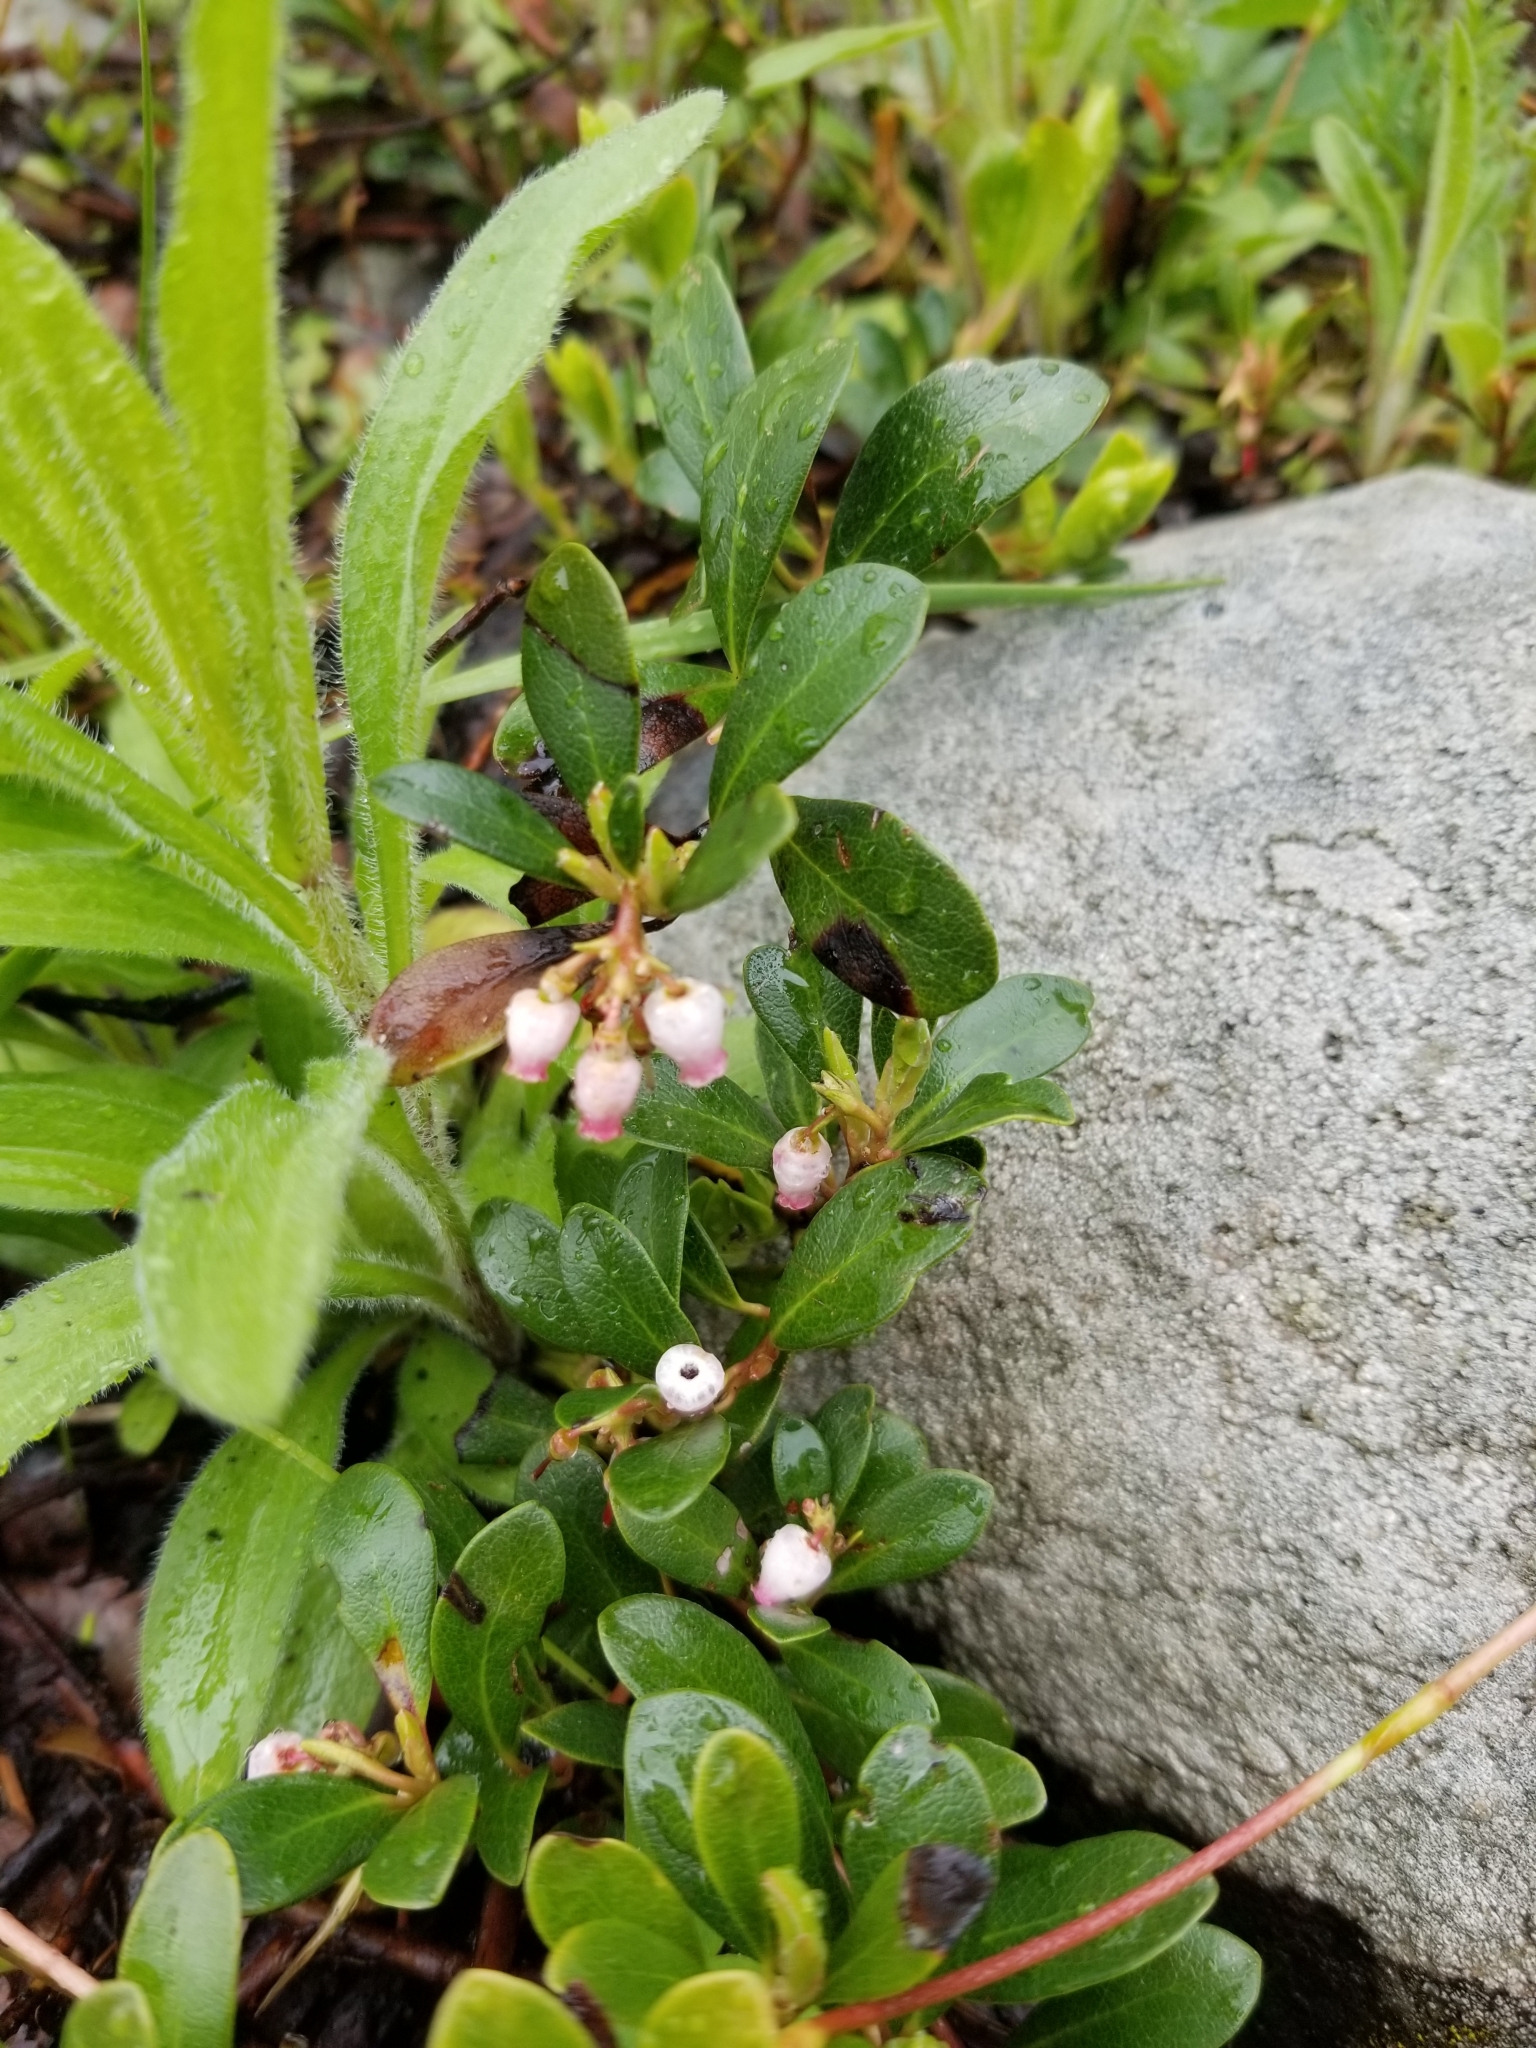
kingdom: Plantae
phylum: Tracheophyta
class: Magnoliopsida
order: Ericales
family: Ericaceae
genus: Arctostaphylos
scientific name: Arctostaphylos uva-ursi
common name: Bearberry
